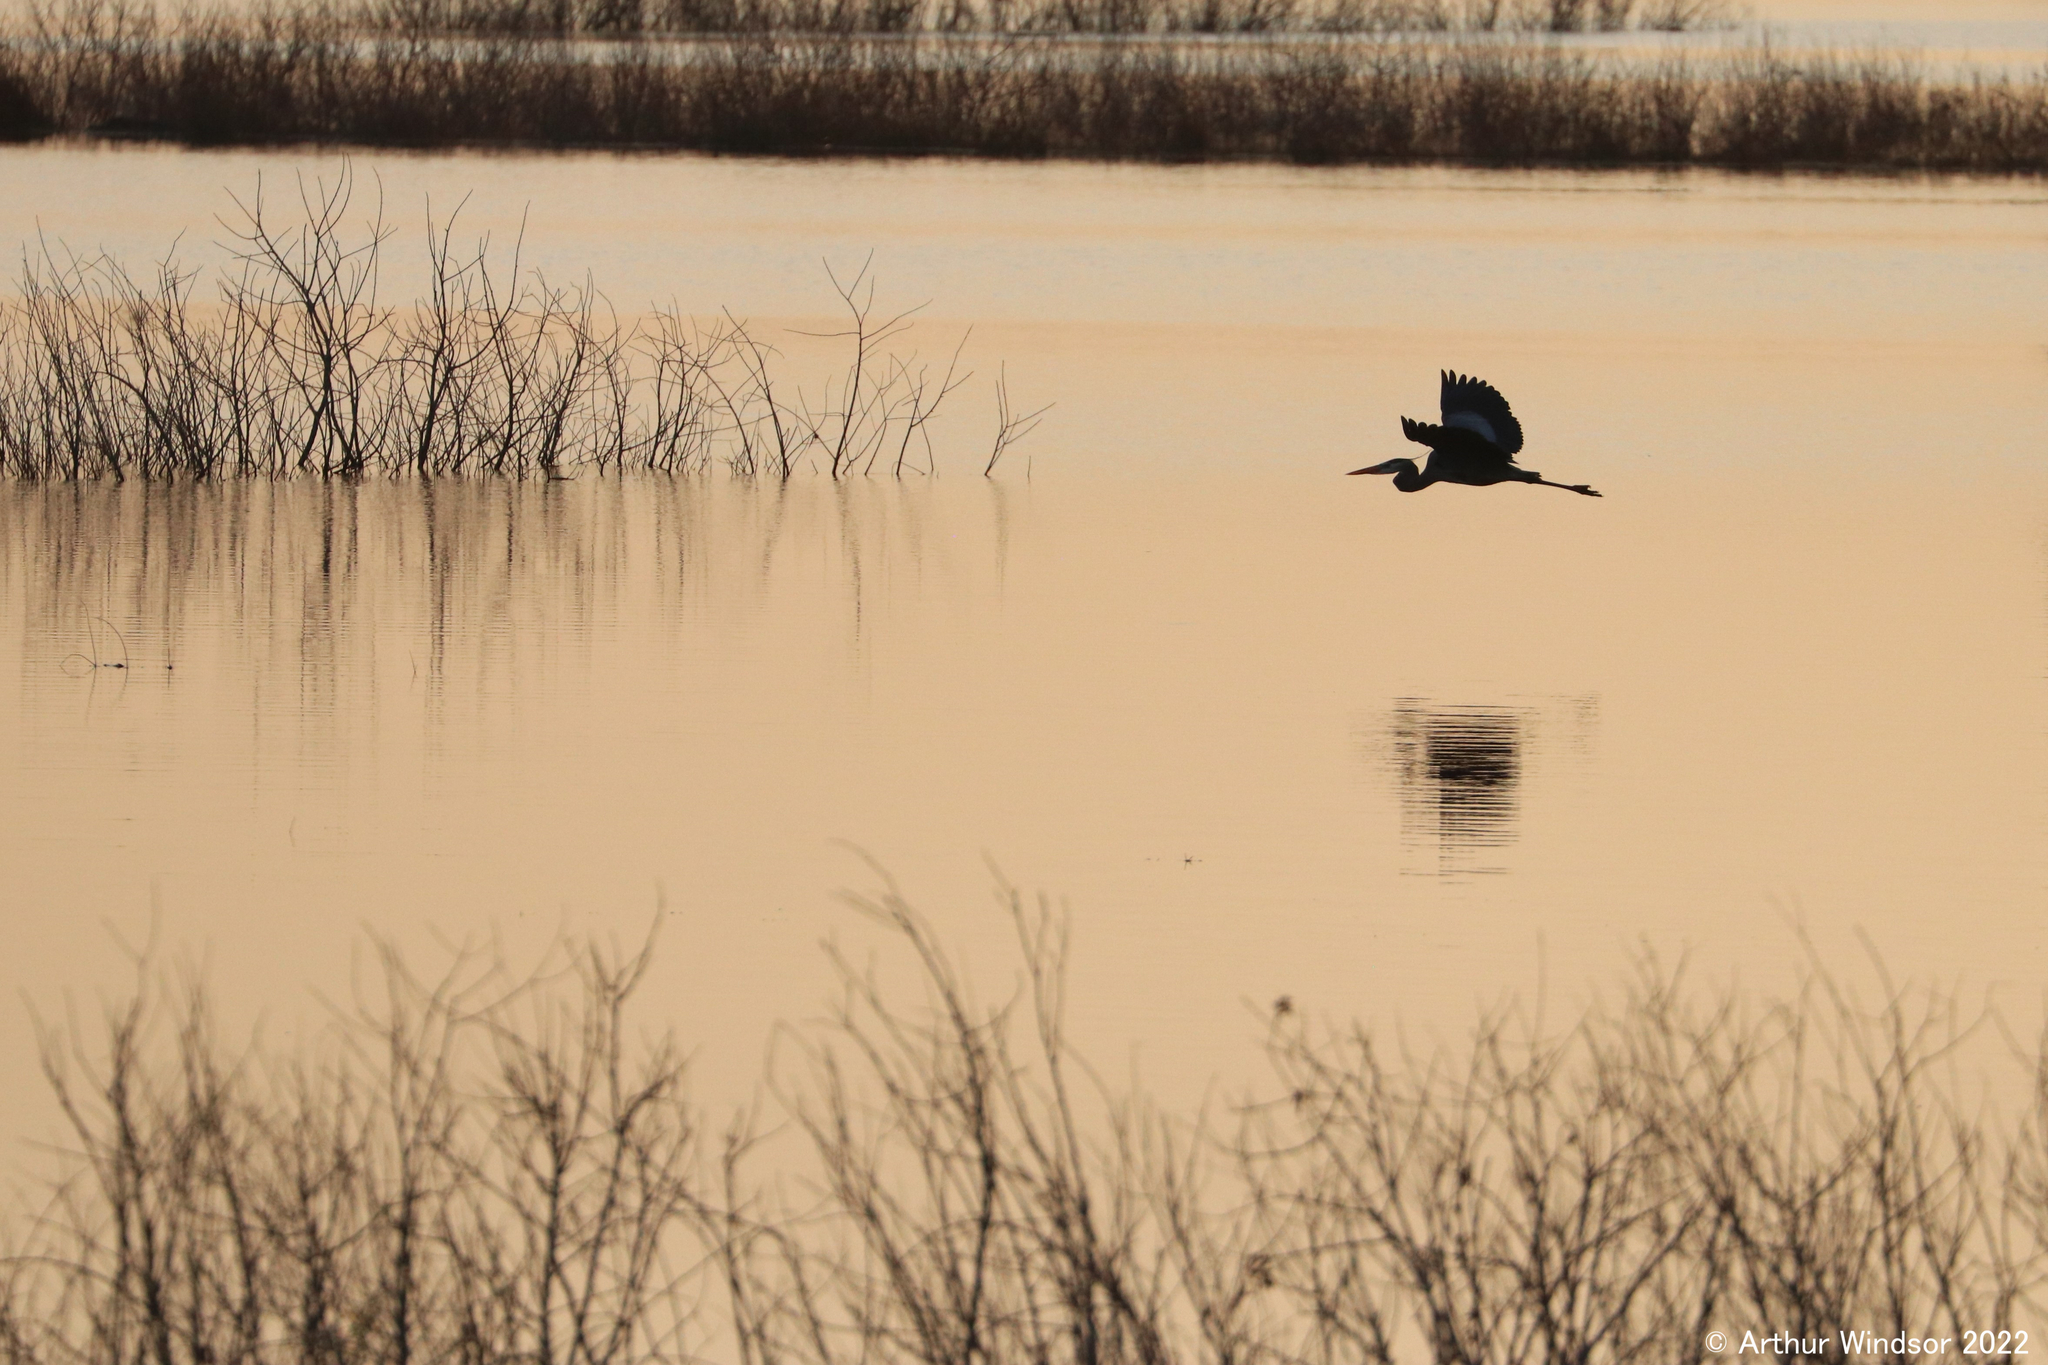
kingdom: Animalia
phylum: Chordata
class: Aves
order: Pelecaniformes
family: Ardeidae
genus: Ardea
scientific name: Ardea herodias
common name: Great blue heron
